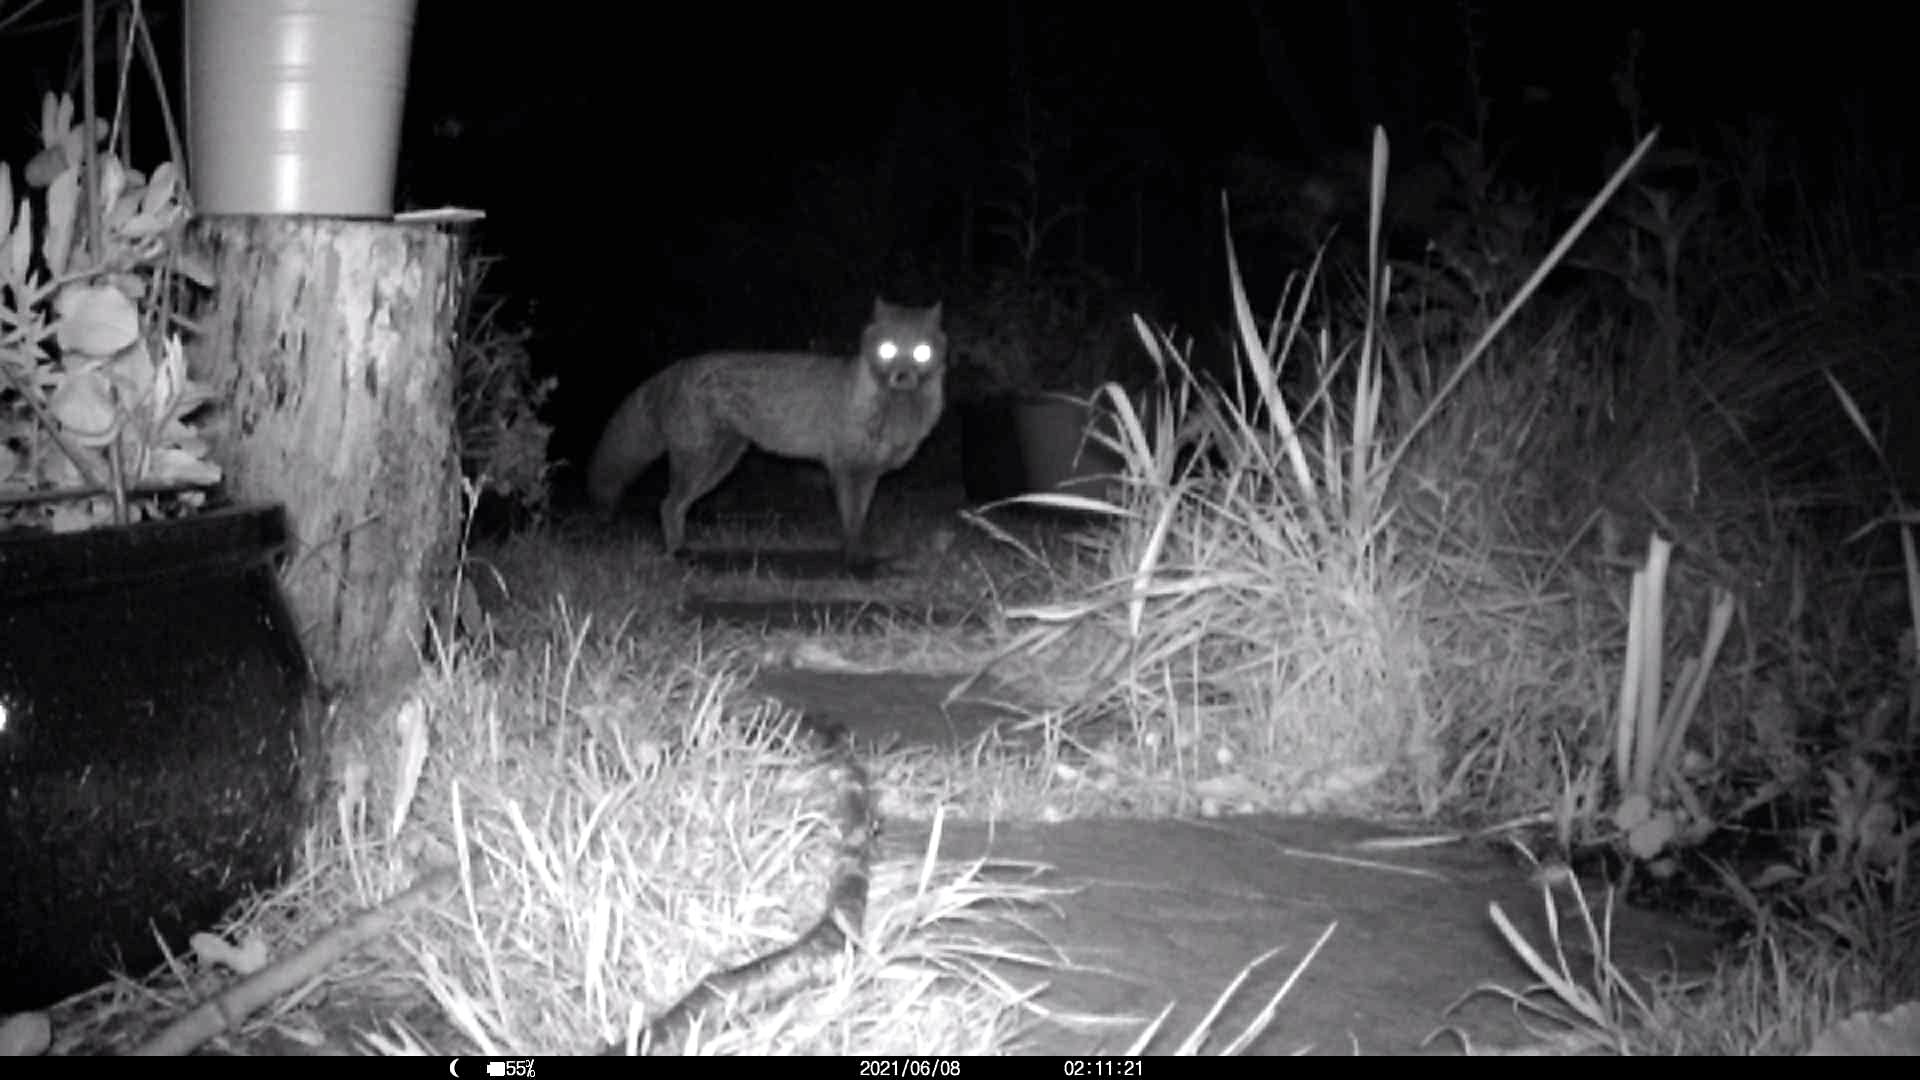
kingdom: Animalia
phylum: Chordata
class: Mammalia
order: Carnivora
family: Canidae
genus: Vulpes
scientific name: Vulpes vulpes
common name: Red fox
